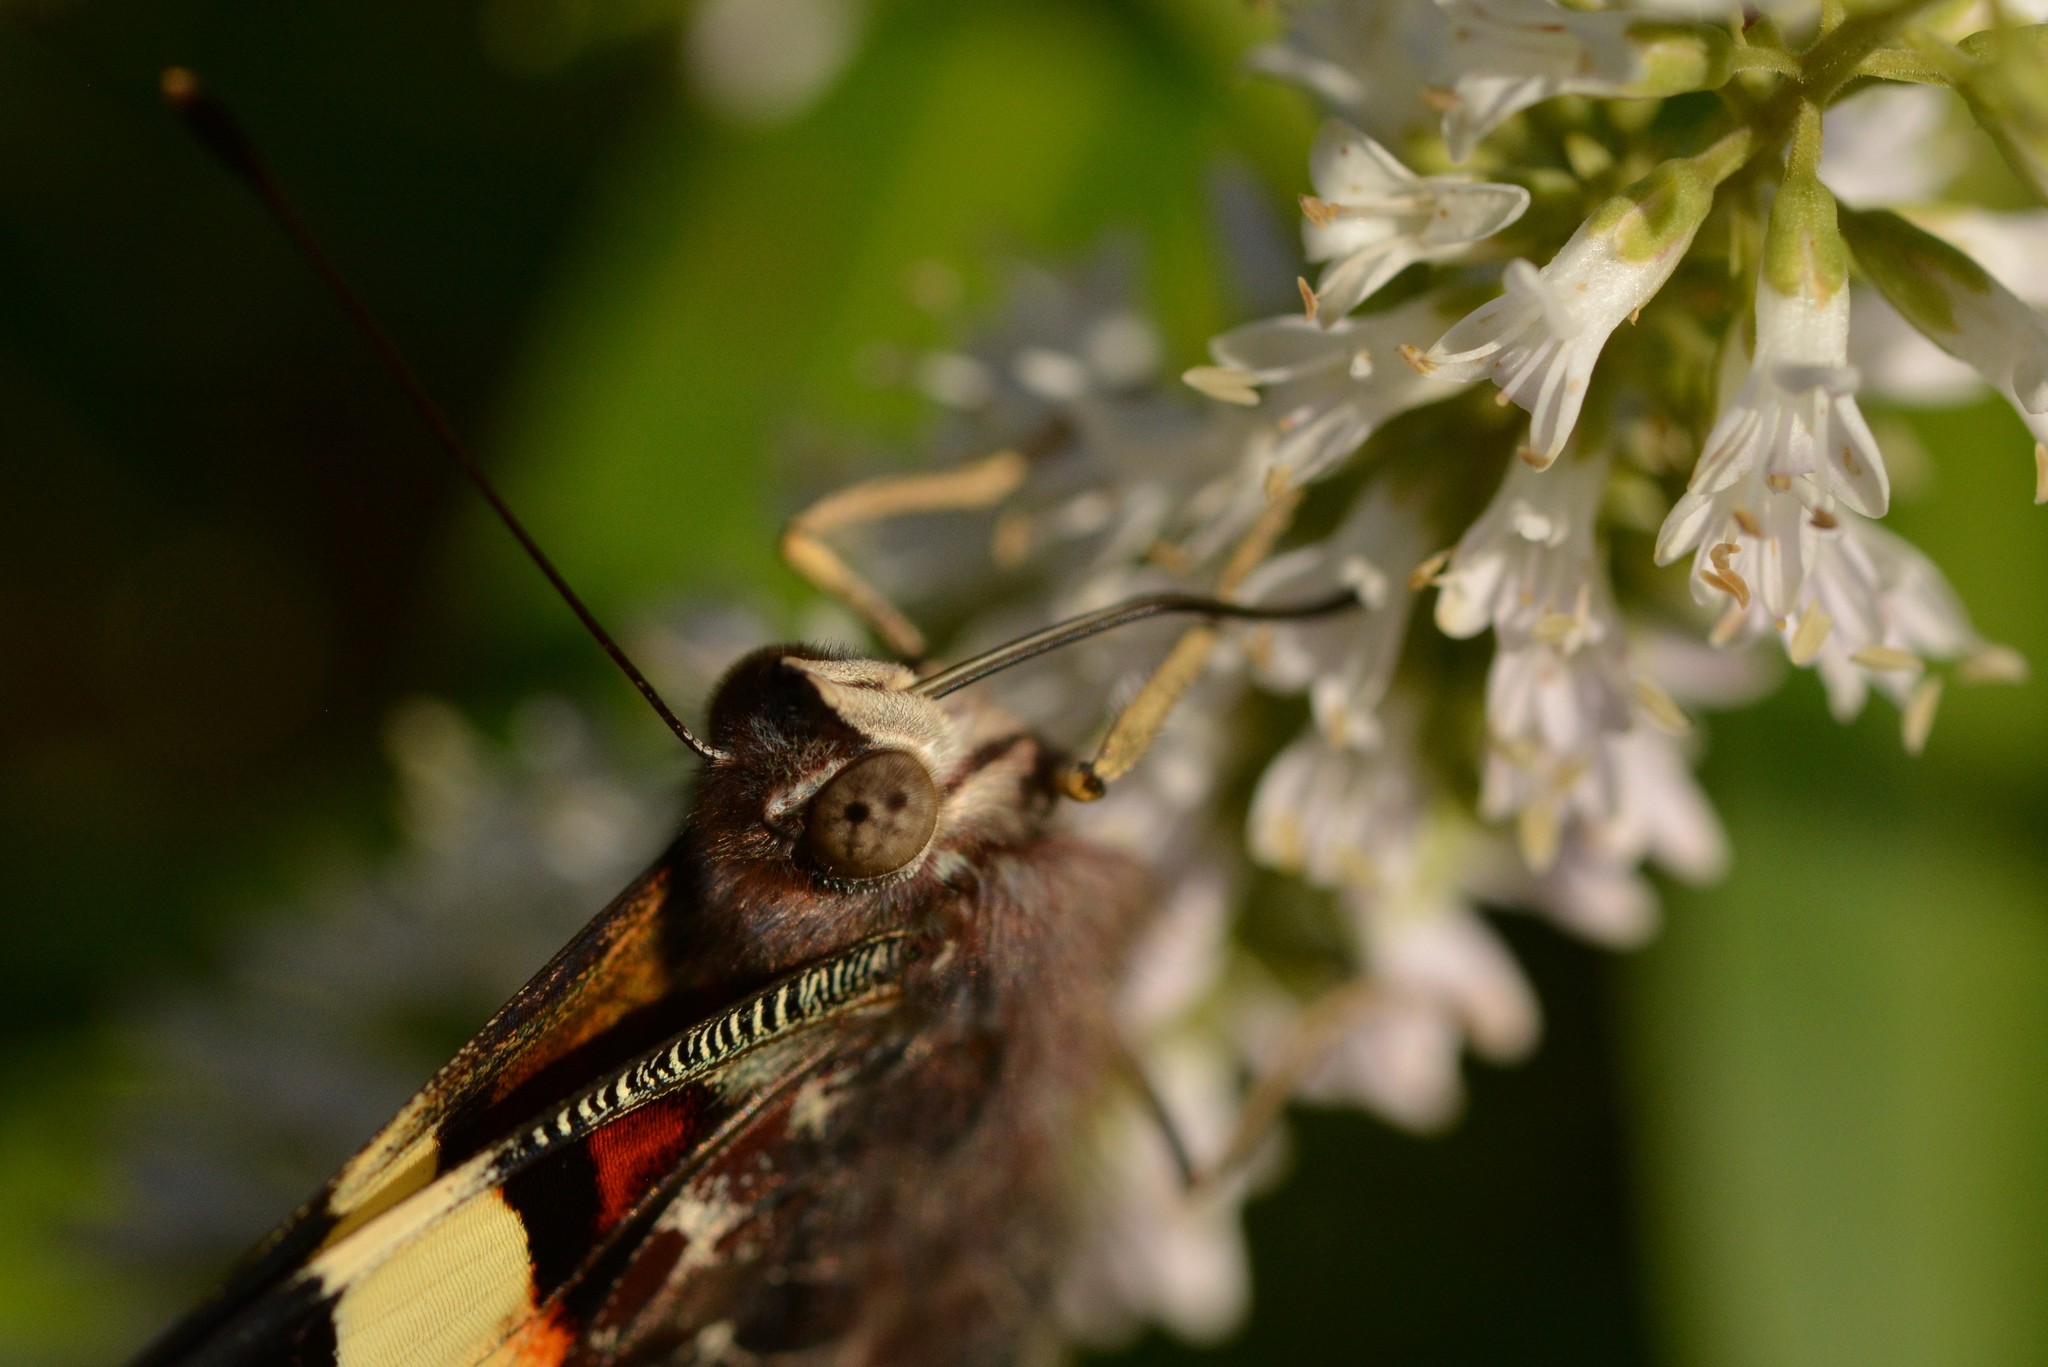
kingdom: Animalia
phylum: Arthropoda
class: Insecta
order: Lepidoptera
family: Nymphalidae
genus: Vanessa
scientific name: Vanessa itea
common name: Yellow admiral
